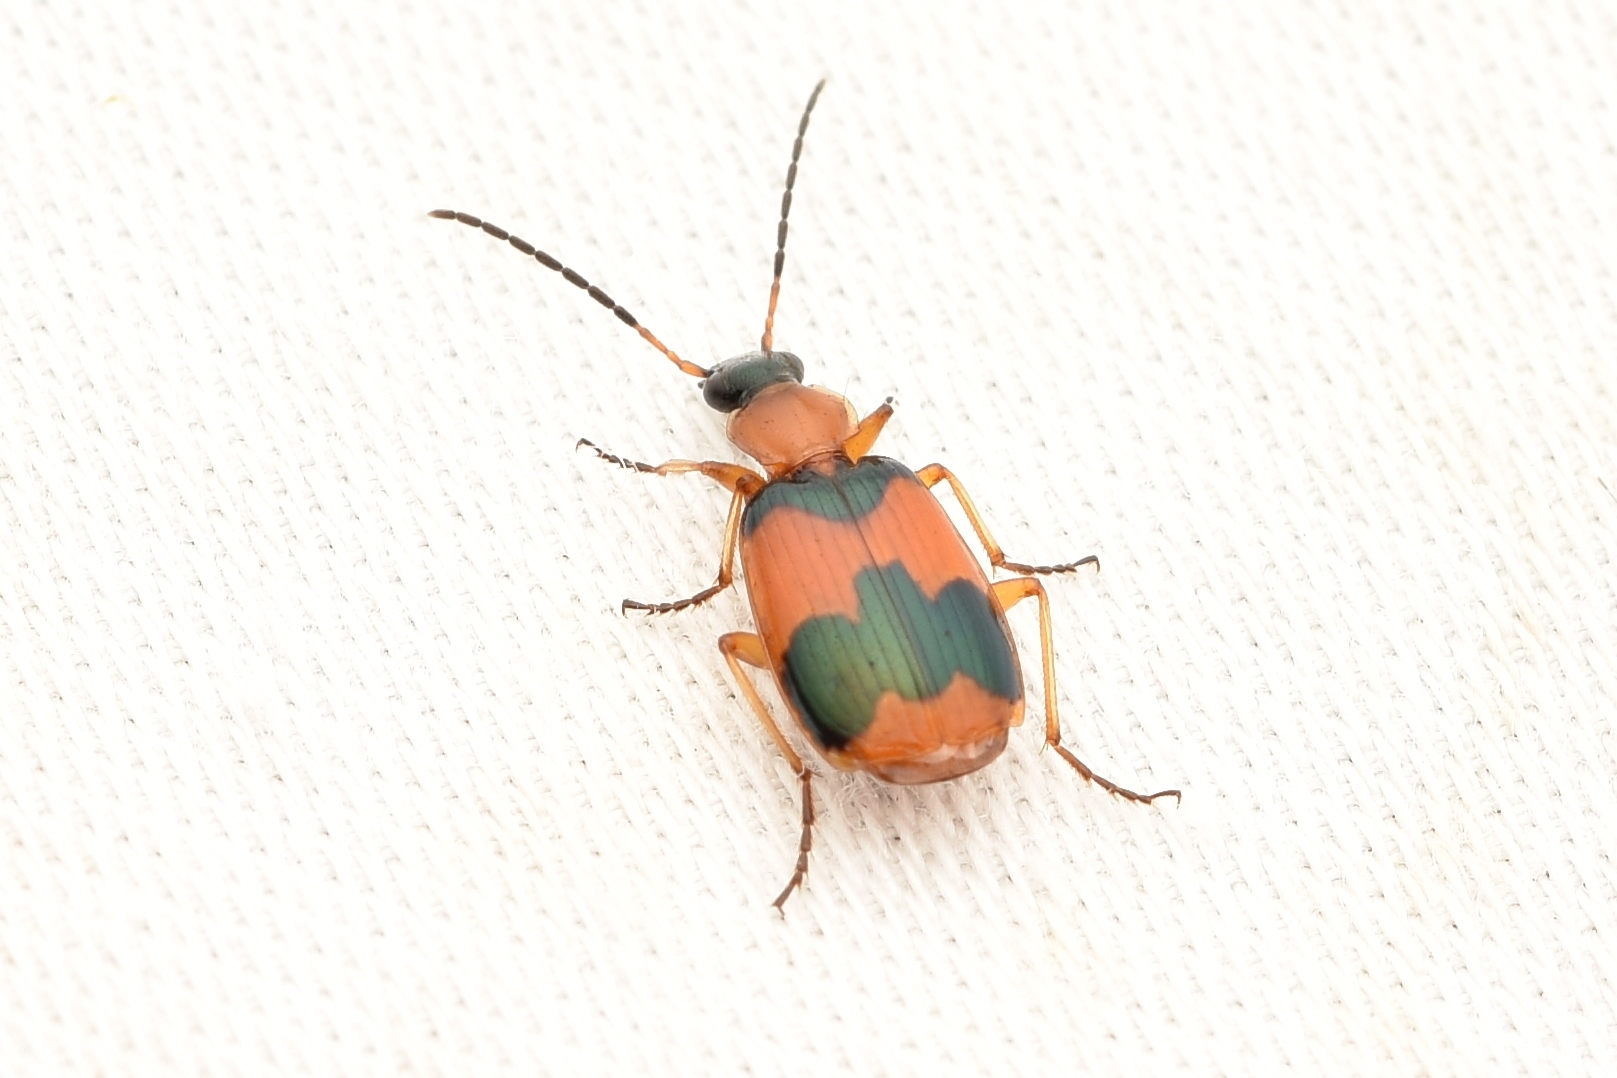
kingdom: Animalia
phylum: Arthropoda
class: Insecta
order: Coleoptera
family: Carabidae
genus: Lebia
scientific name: Lebia pulchella
